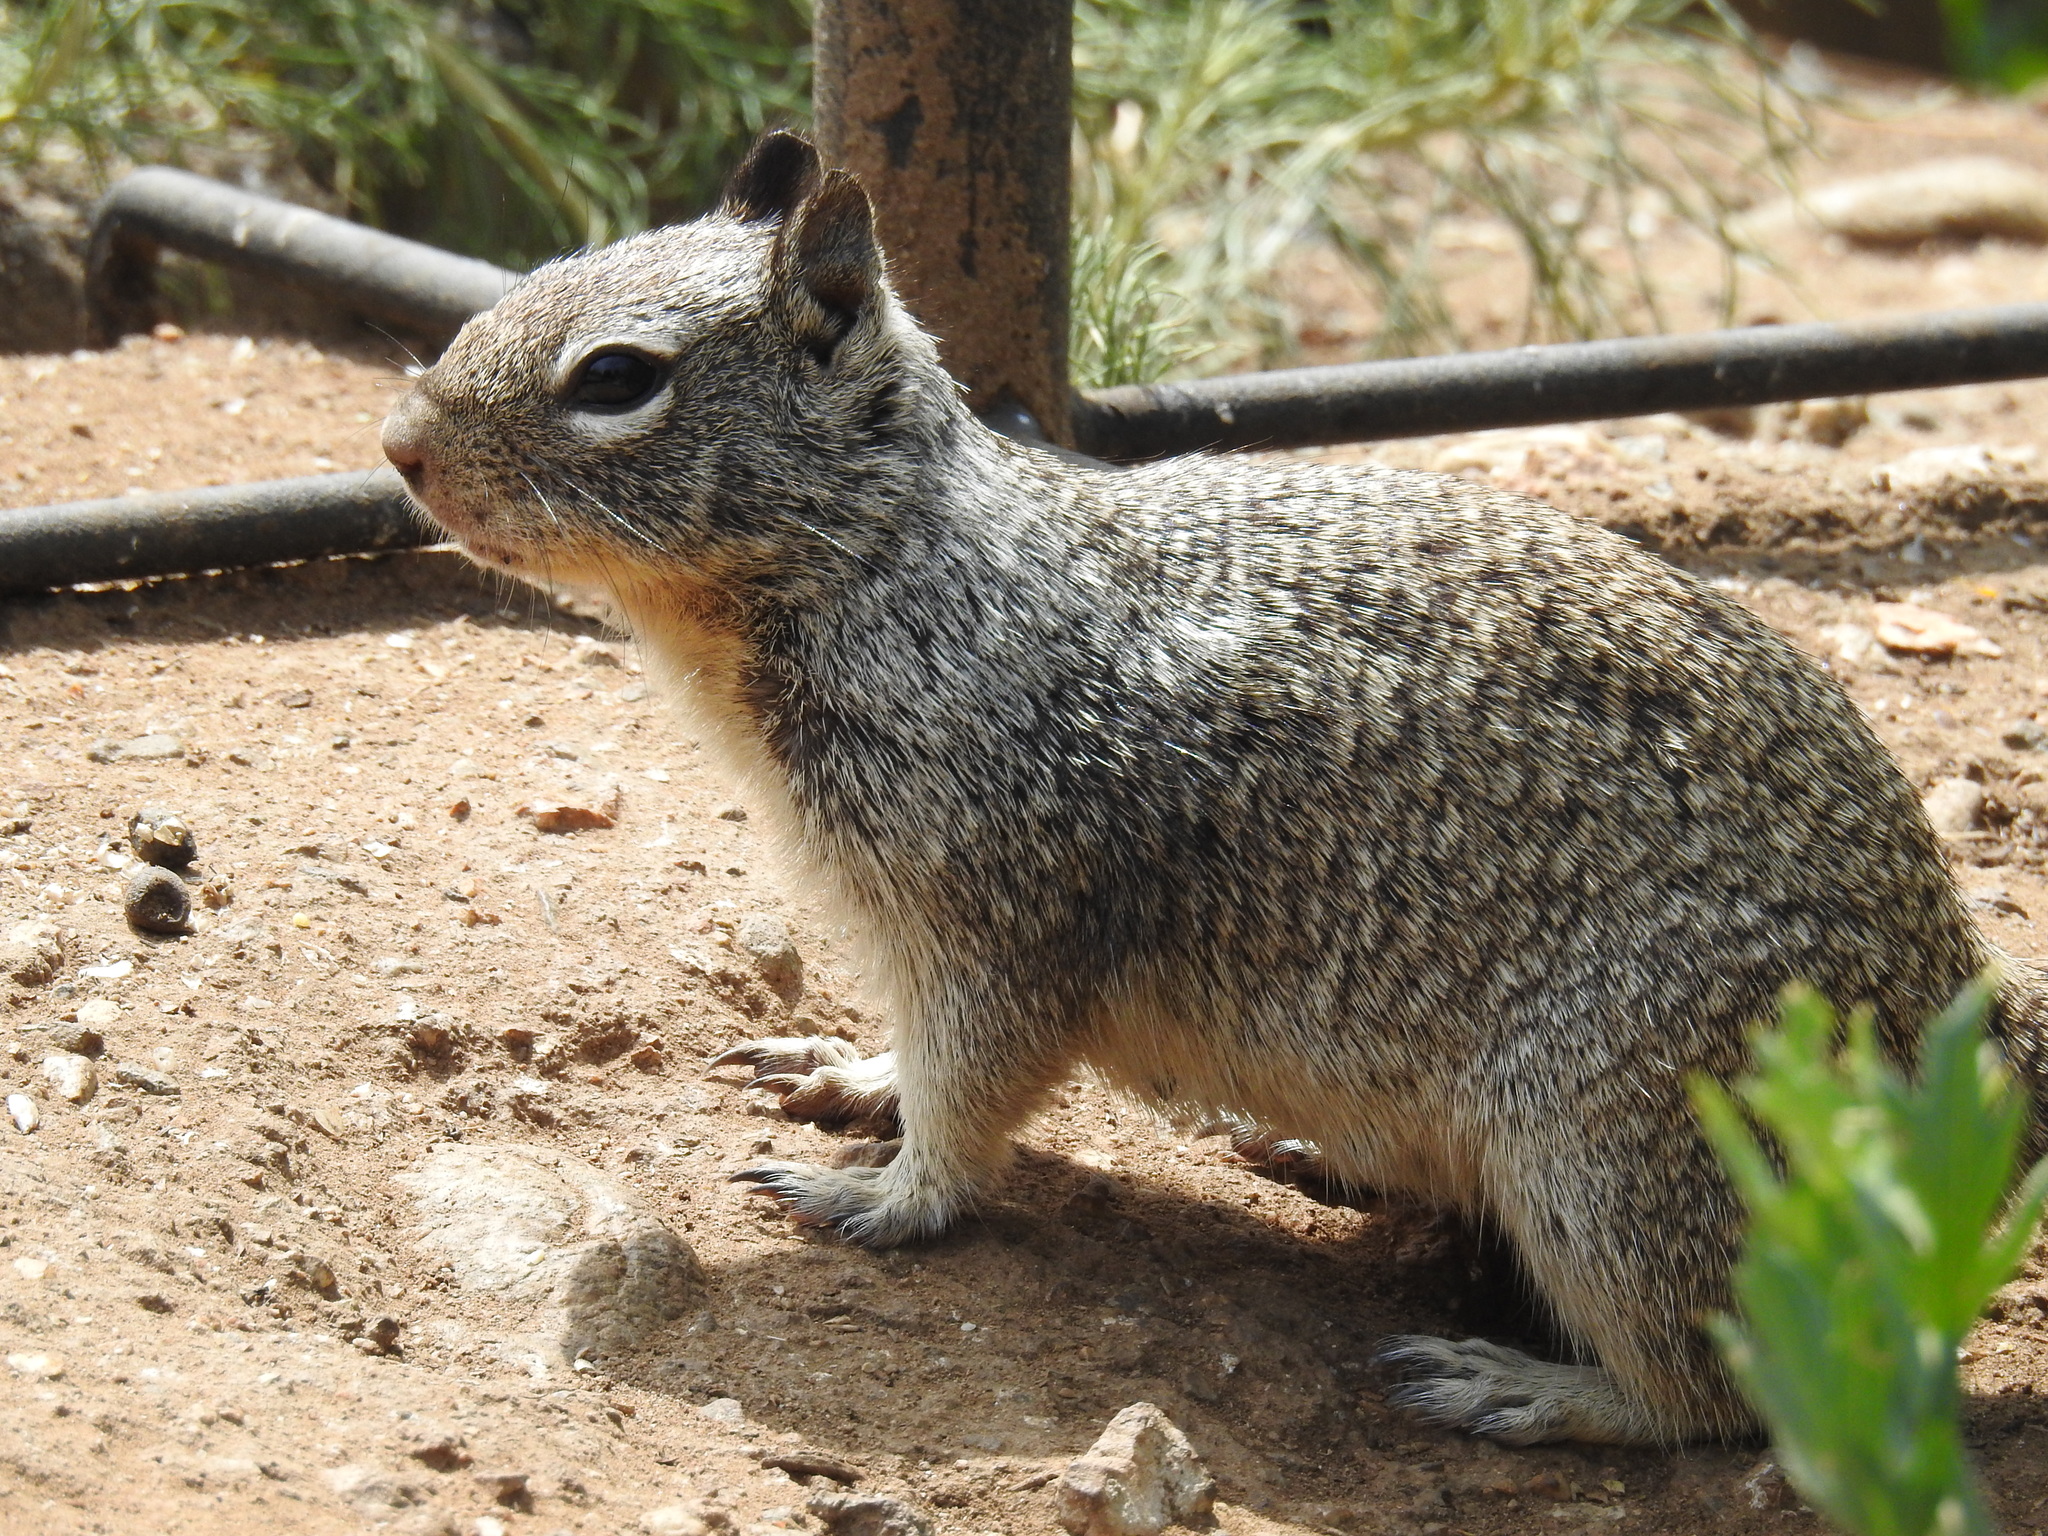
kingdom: Animalia
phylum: Chordata
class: Mammalia
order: Rodentia
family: Sciuridae
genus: Otospermophilus
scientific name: Otospermophilus beecheyi
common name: California ground squirrel
